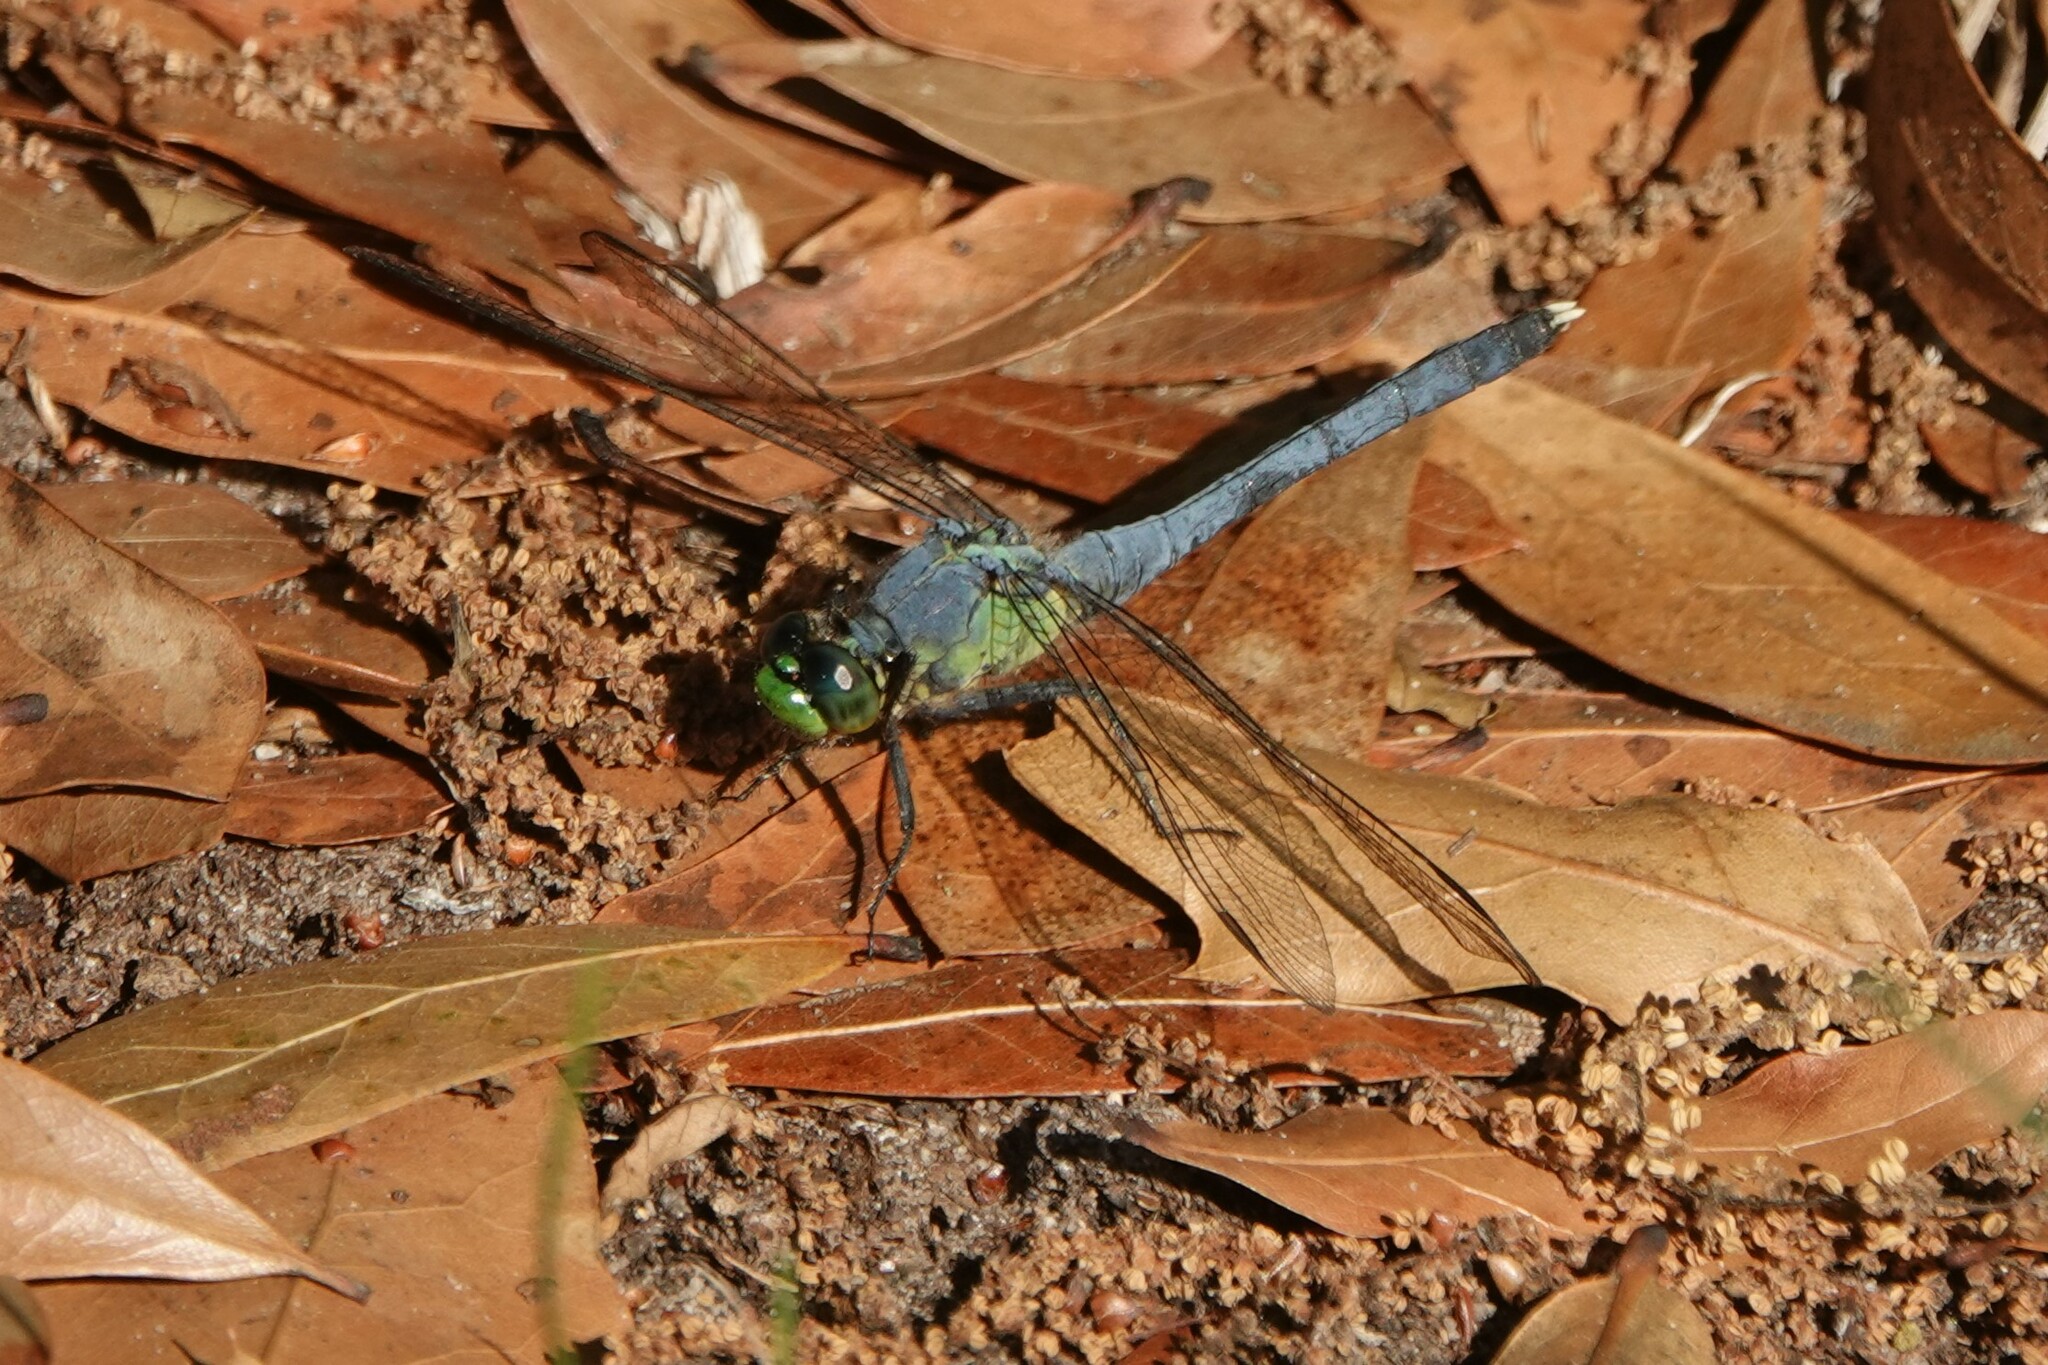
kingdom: Animalia
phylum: Arthropoda
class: Insecta
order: Odonata
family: Libellulidae
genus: Erythemis
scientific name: Erythemis simplicicollis
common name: Eastern pondhawk
